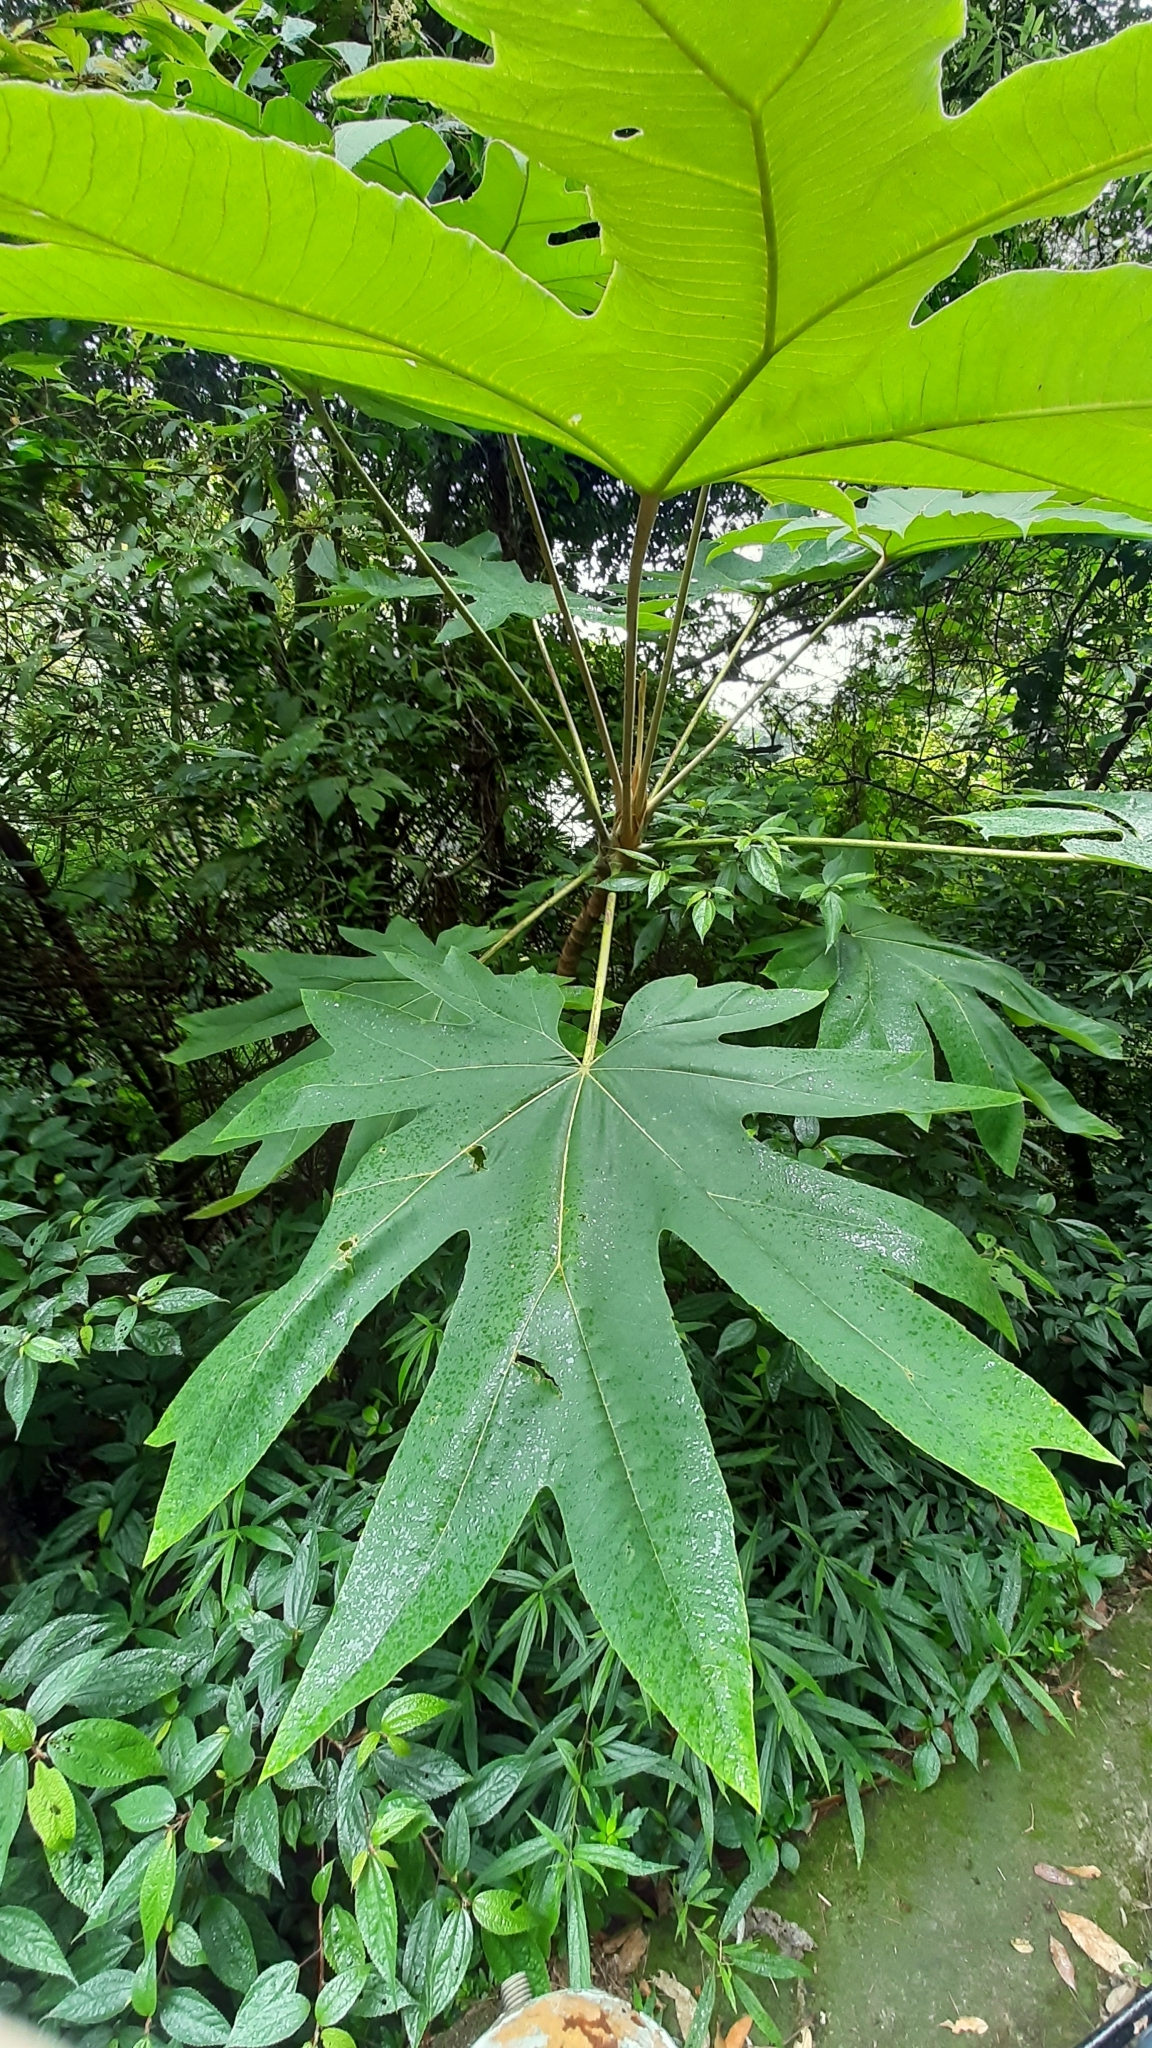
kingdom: Plantae
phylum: Tracheophyta
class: Magnoliopsida
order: Apiales
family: Araliaceae
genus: Tetrapanax
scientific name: Tetrapanax papyrifer
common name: Rice-paper plant
